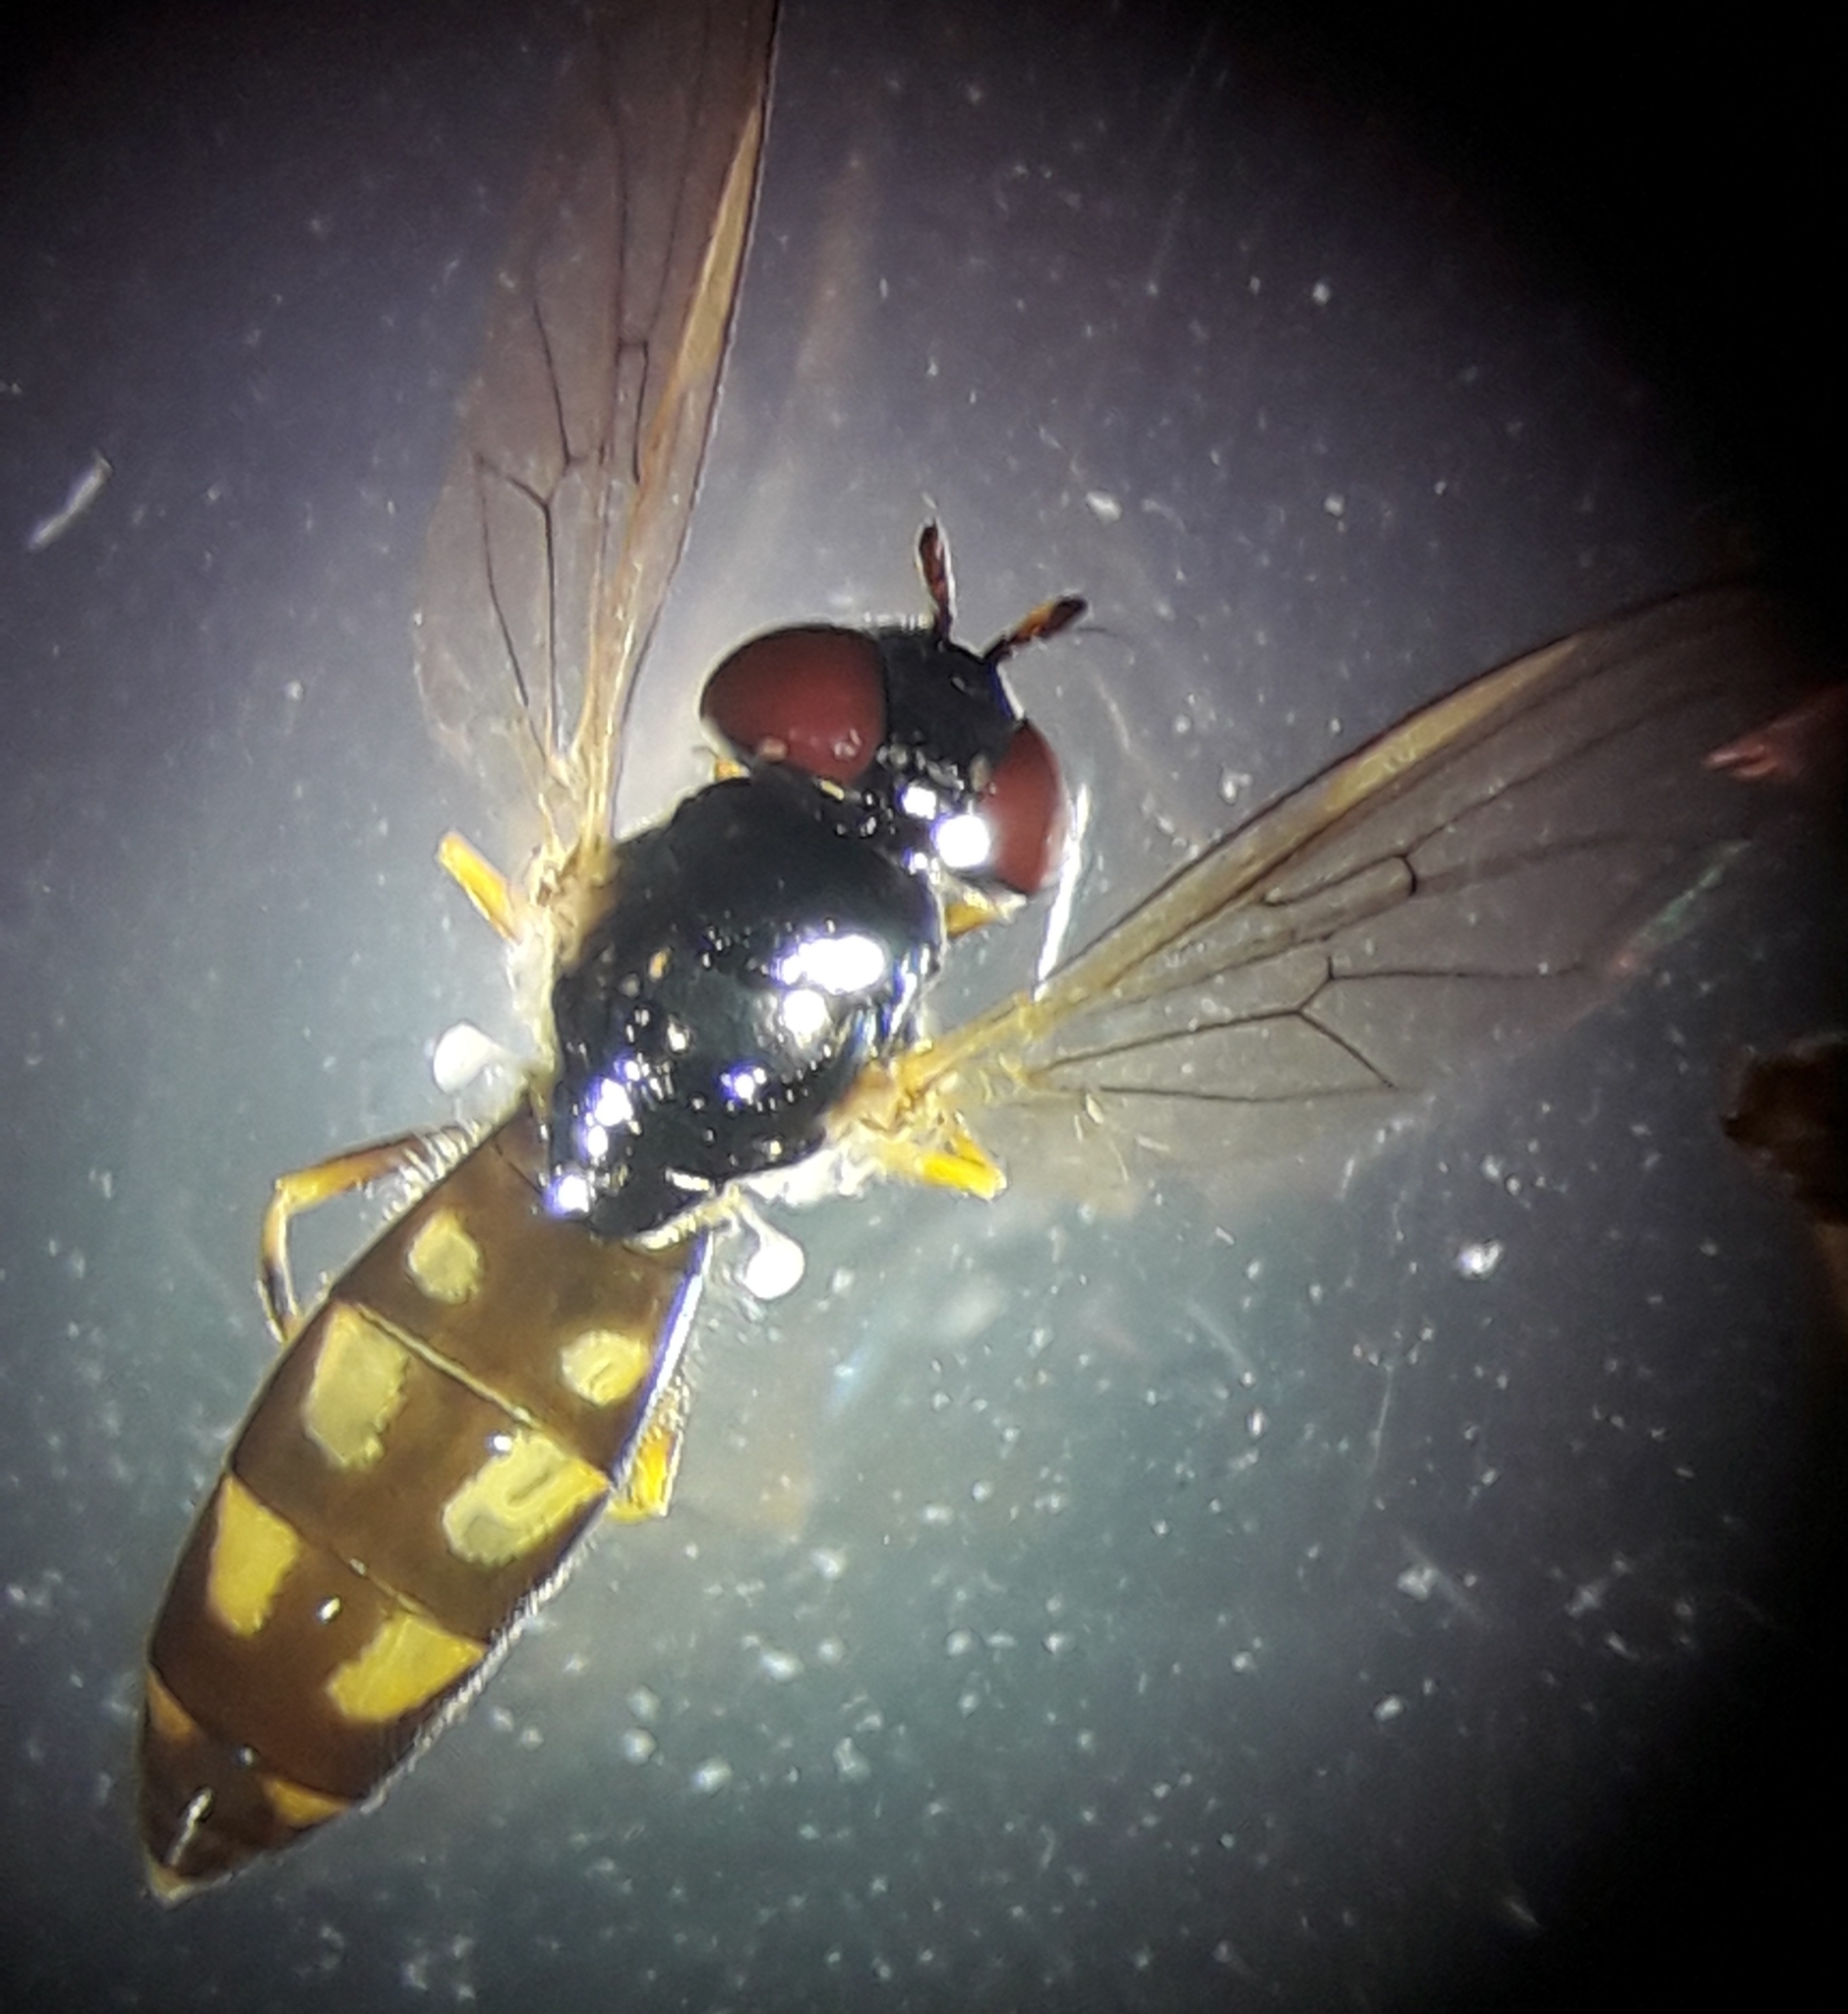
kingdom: Animalia
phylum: Arthropoda
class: Insecta
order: Diptera
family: Syrphidae
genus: Melanostoma
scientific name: Melanostoma mellina
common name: Hover fly
